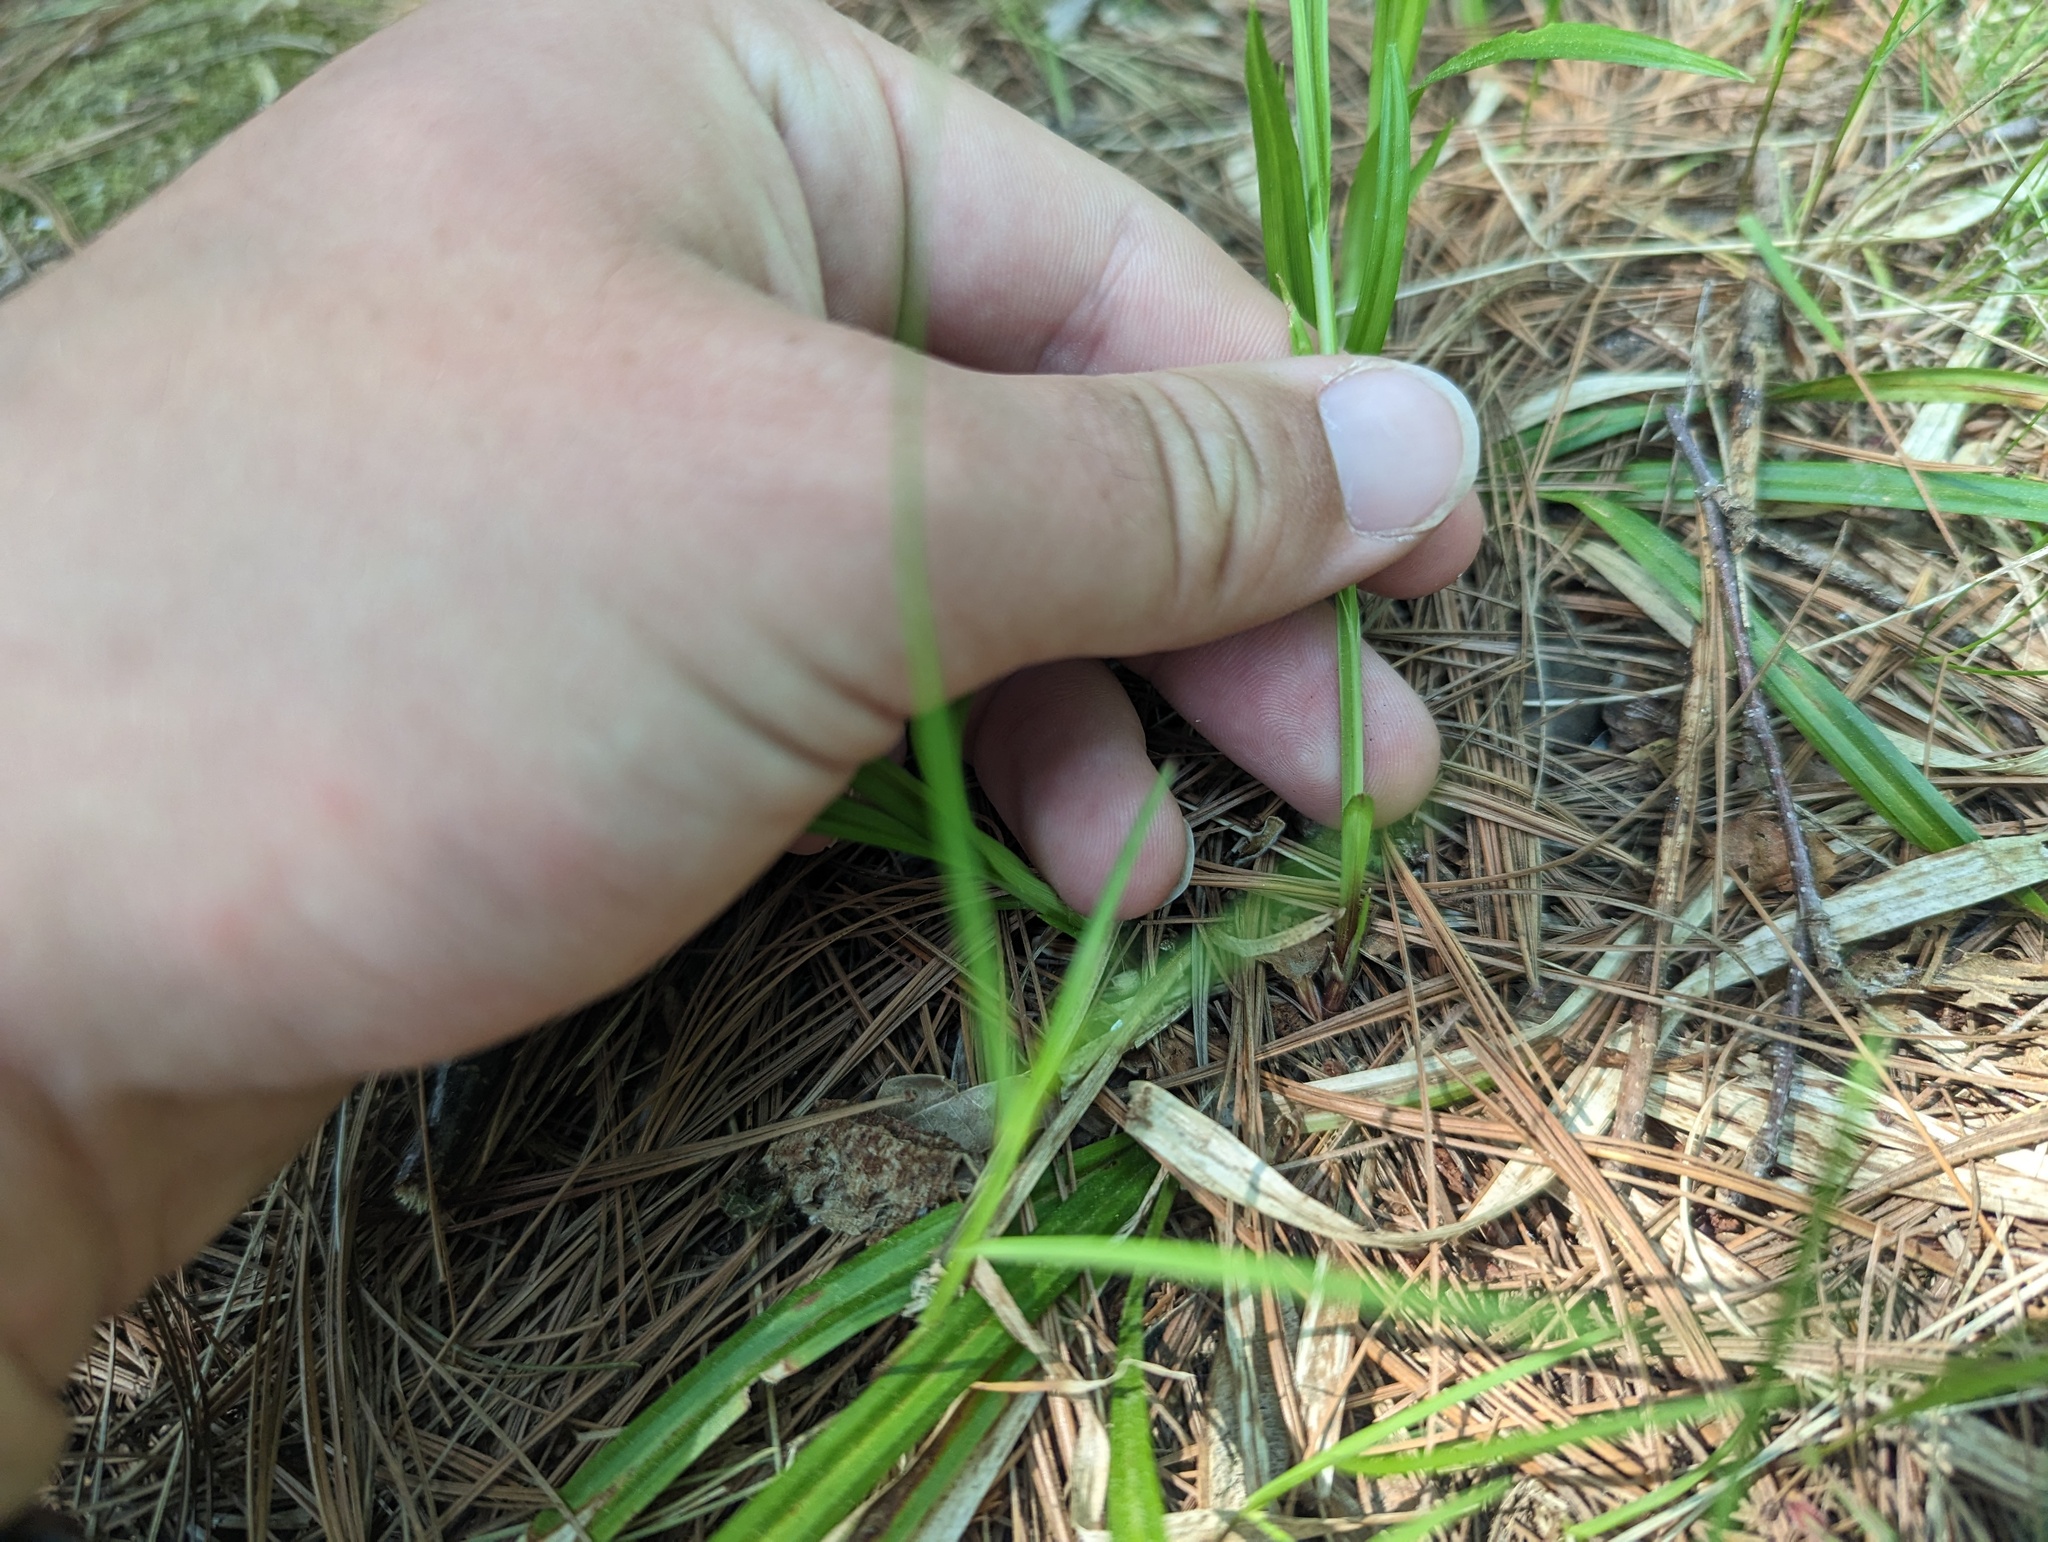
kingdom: Plantae
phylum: Tracheophyta
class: Liliopsida
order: Poales
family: Cyperaceae
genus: Carex
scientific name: Carex arctata
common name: Black sedge
